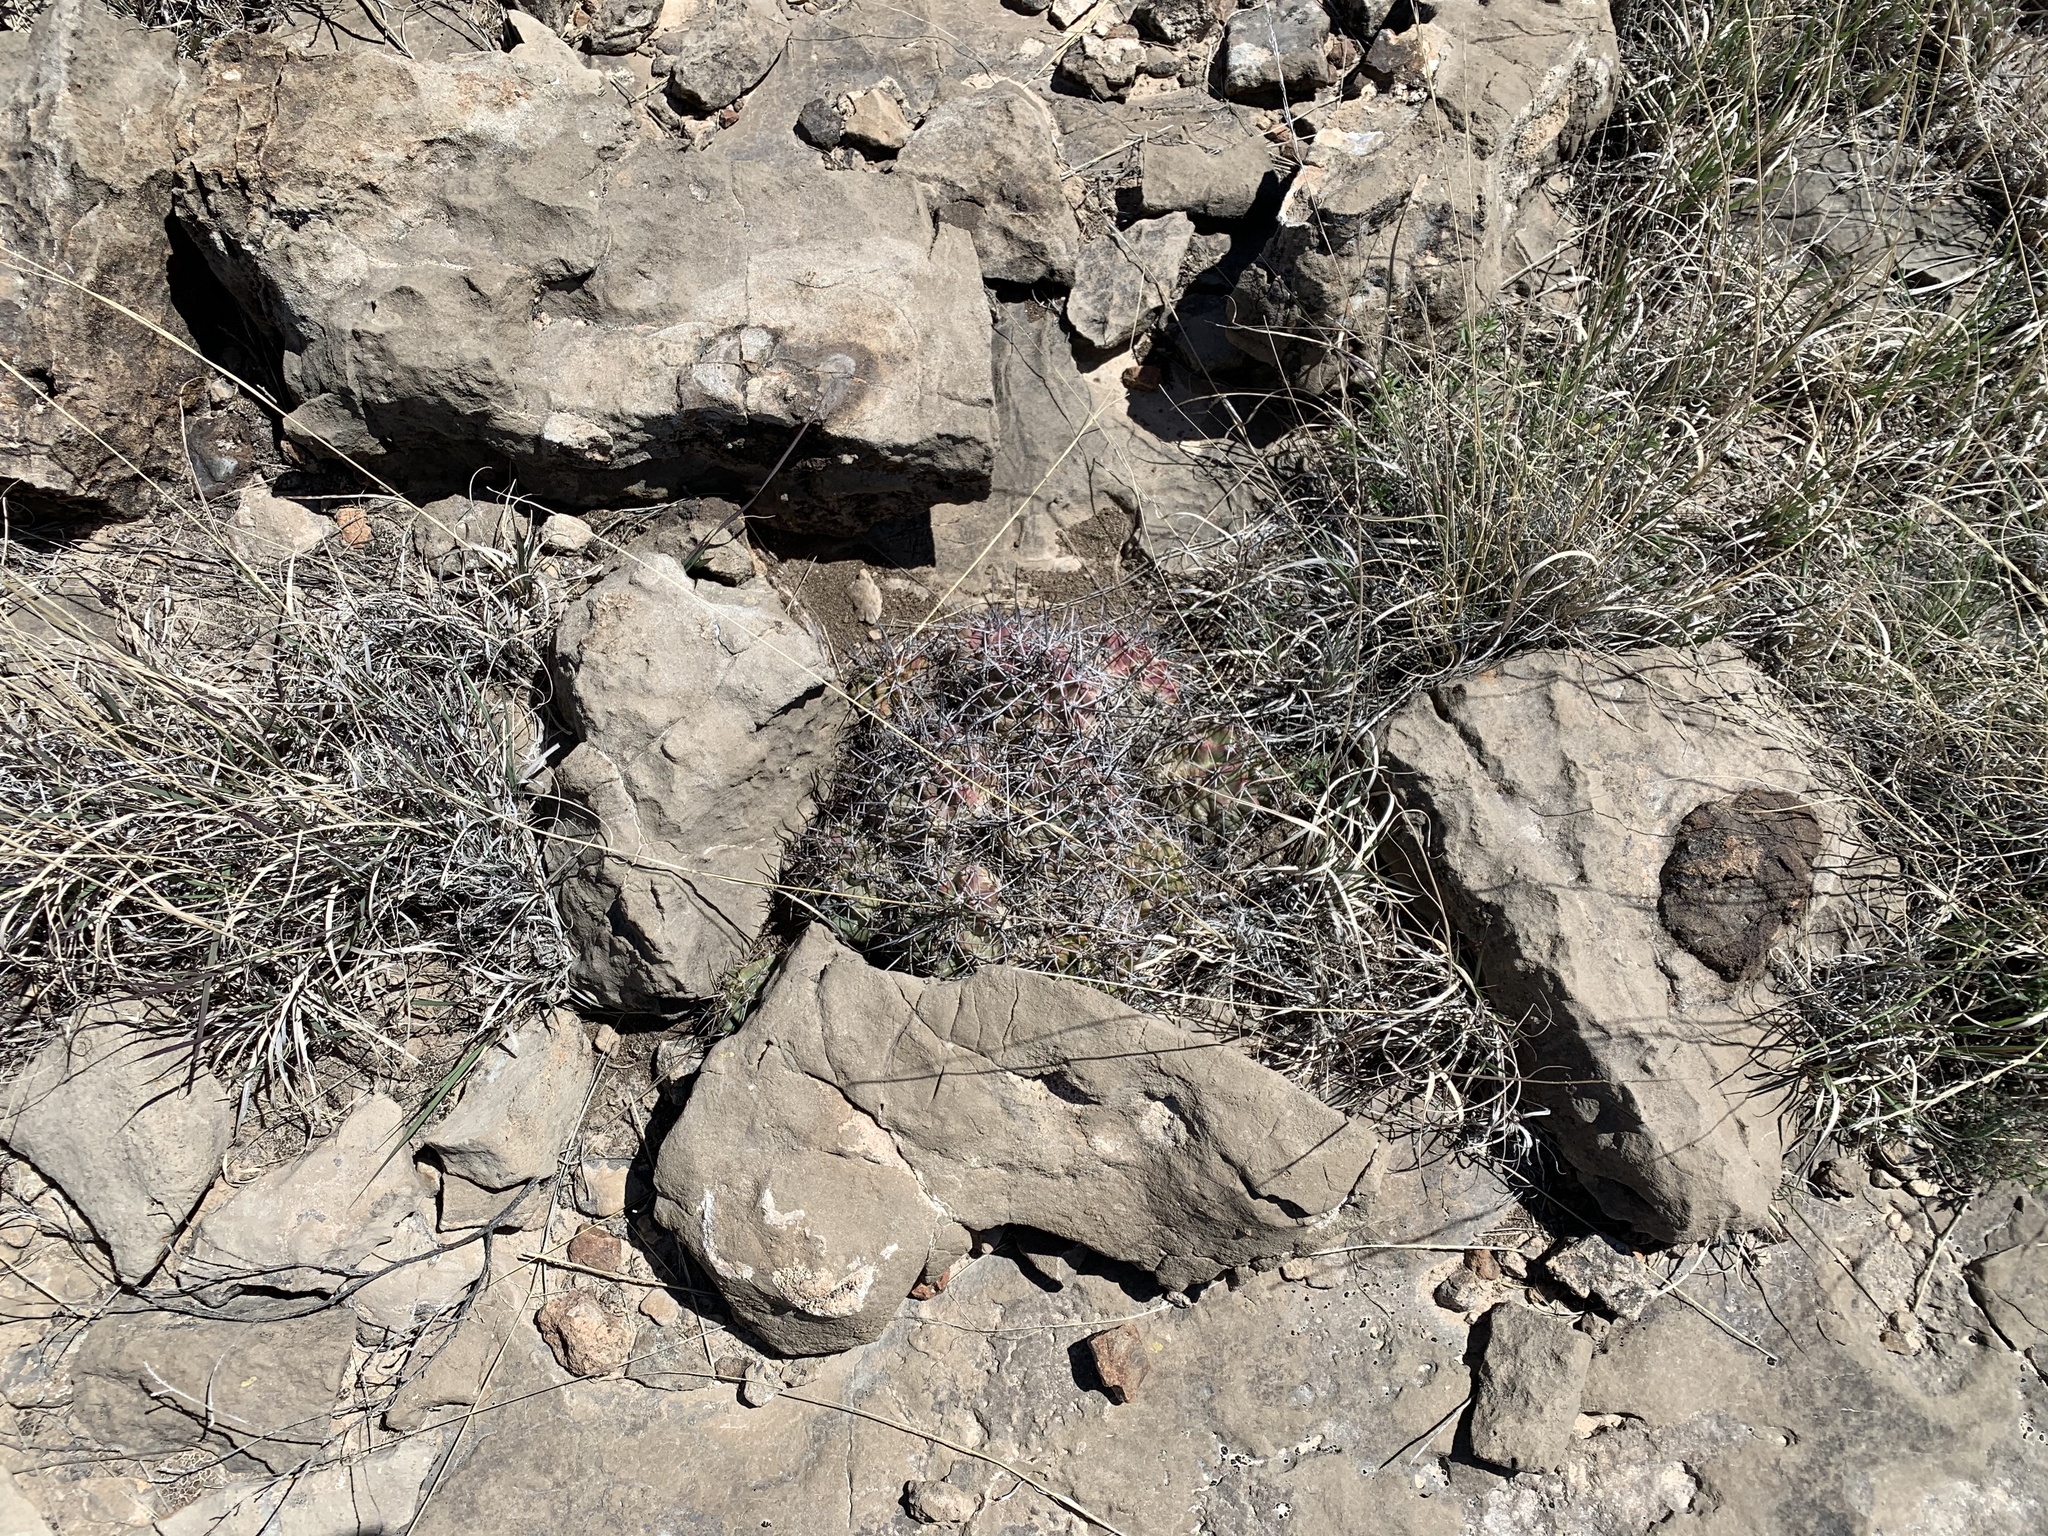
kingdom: Plantae
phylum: Tracheophyta
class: Magnoliopsida
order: Caryophyllales
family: Cactaceae
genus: Echinocereus
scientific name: Echinocereus coccineus
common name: Scarlet hedgehog cactus
